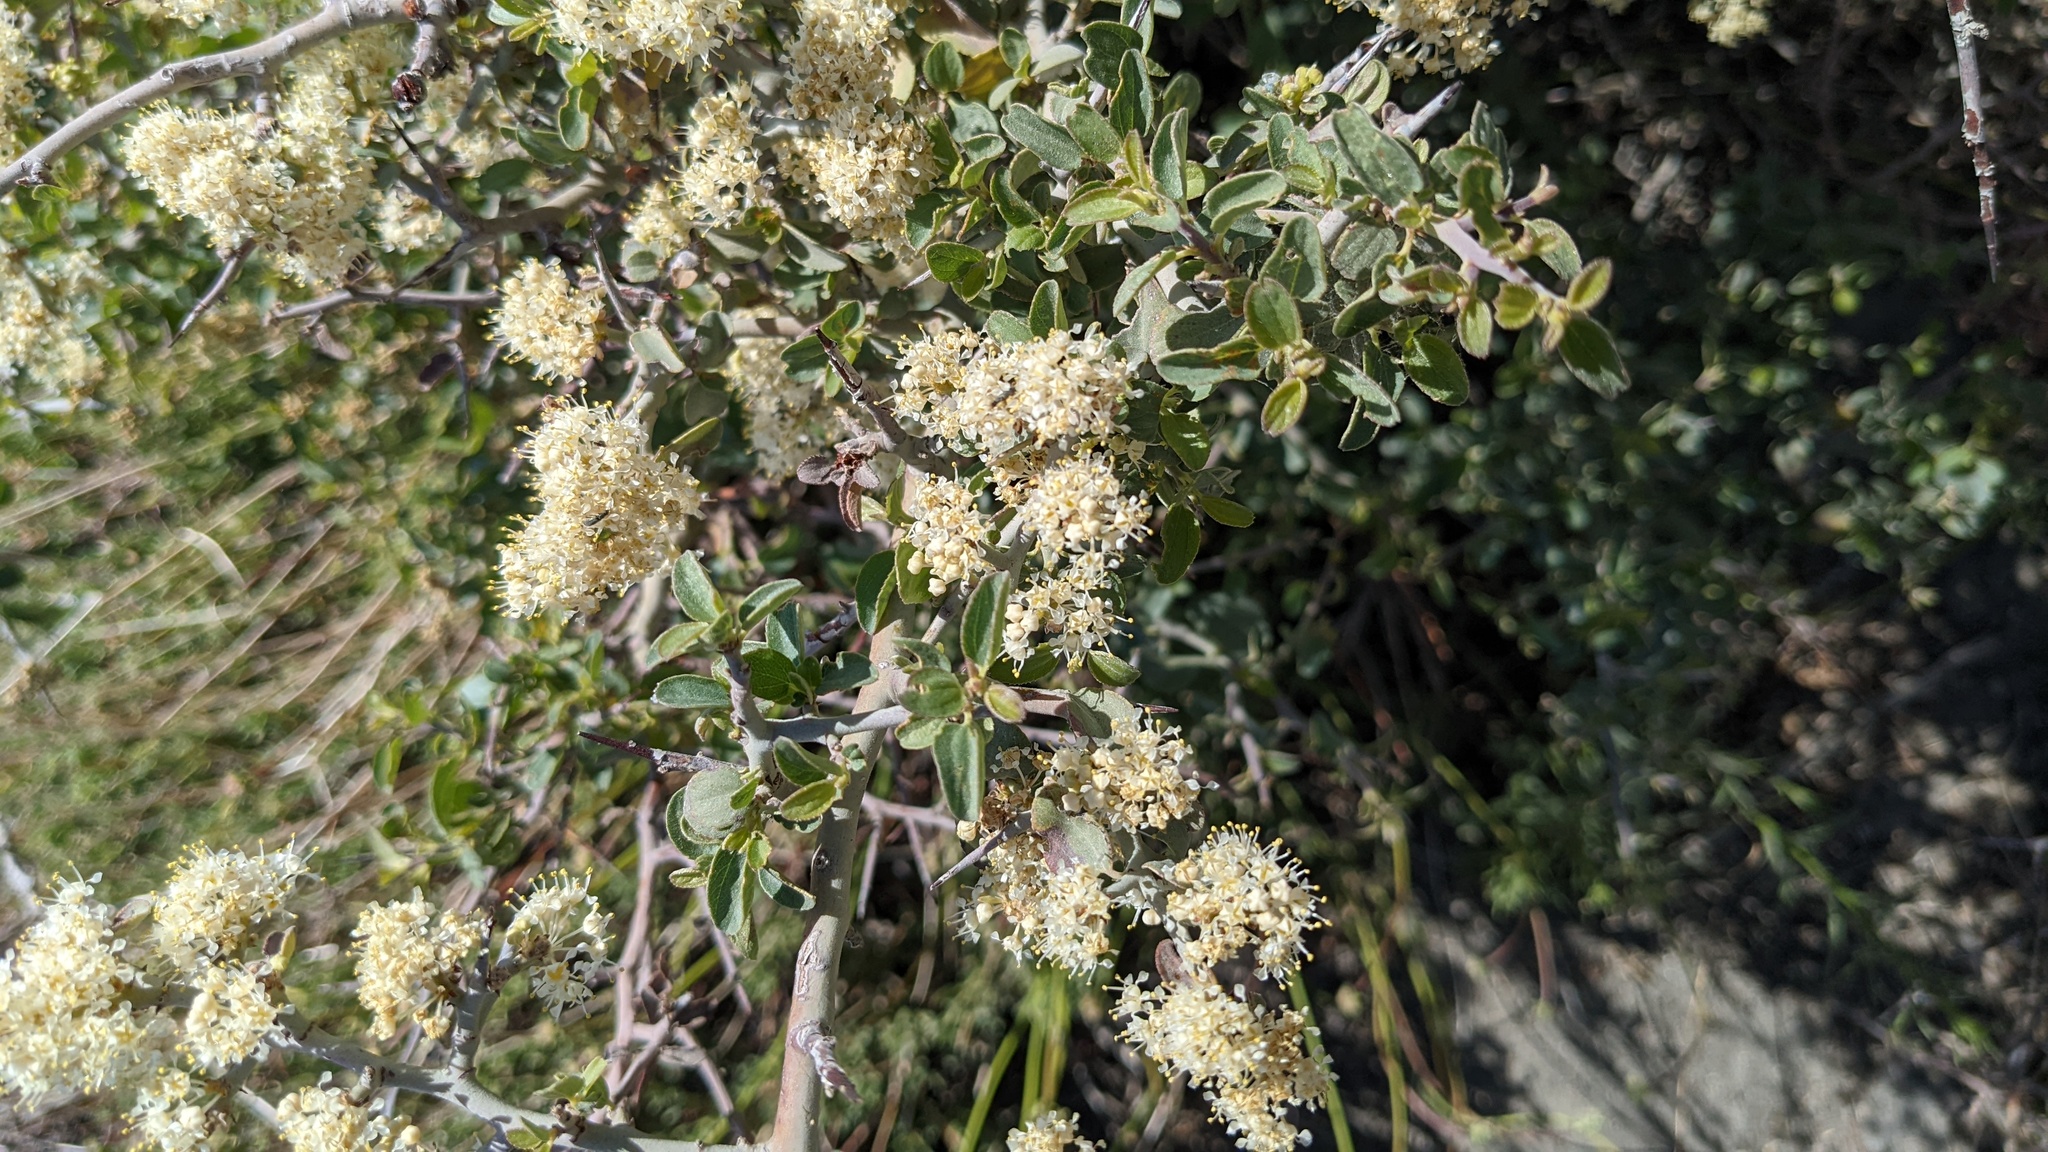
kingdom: Plantae
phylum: Tracheophyta
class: Magnoliopsida
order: Rosales
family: Rhamnaceae
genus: Ceanothus
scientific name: Ceanothus cordulatus
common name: Mountain whitethorn
